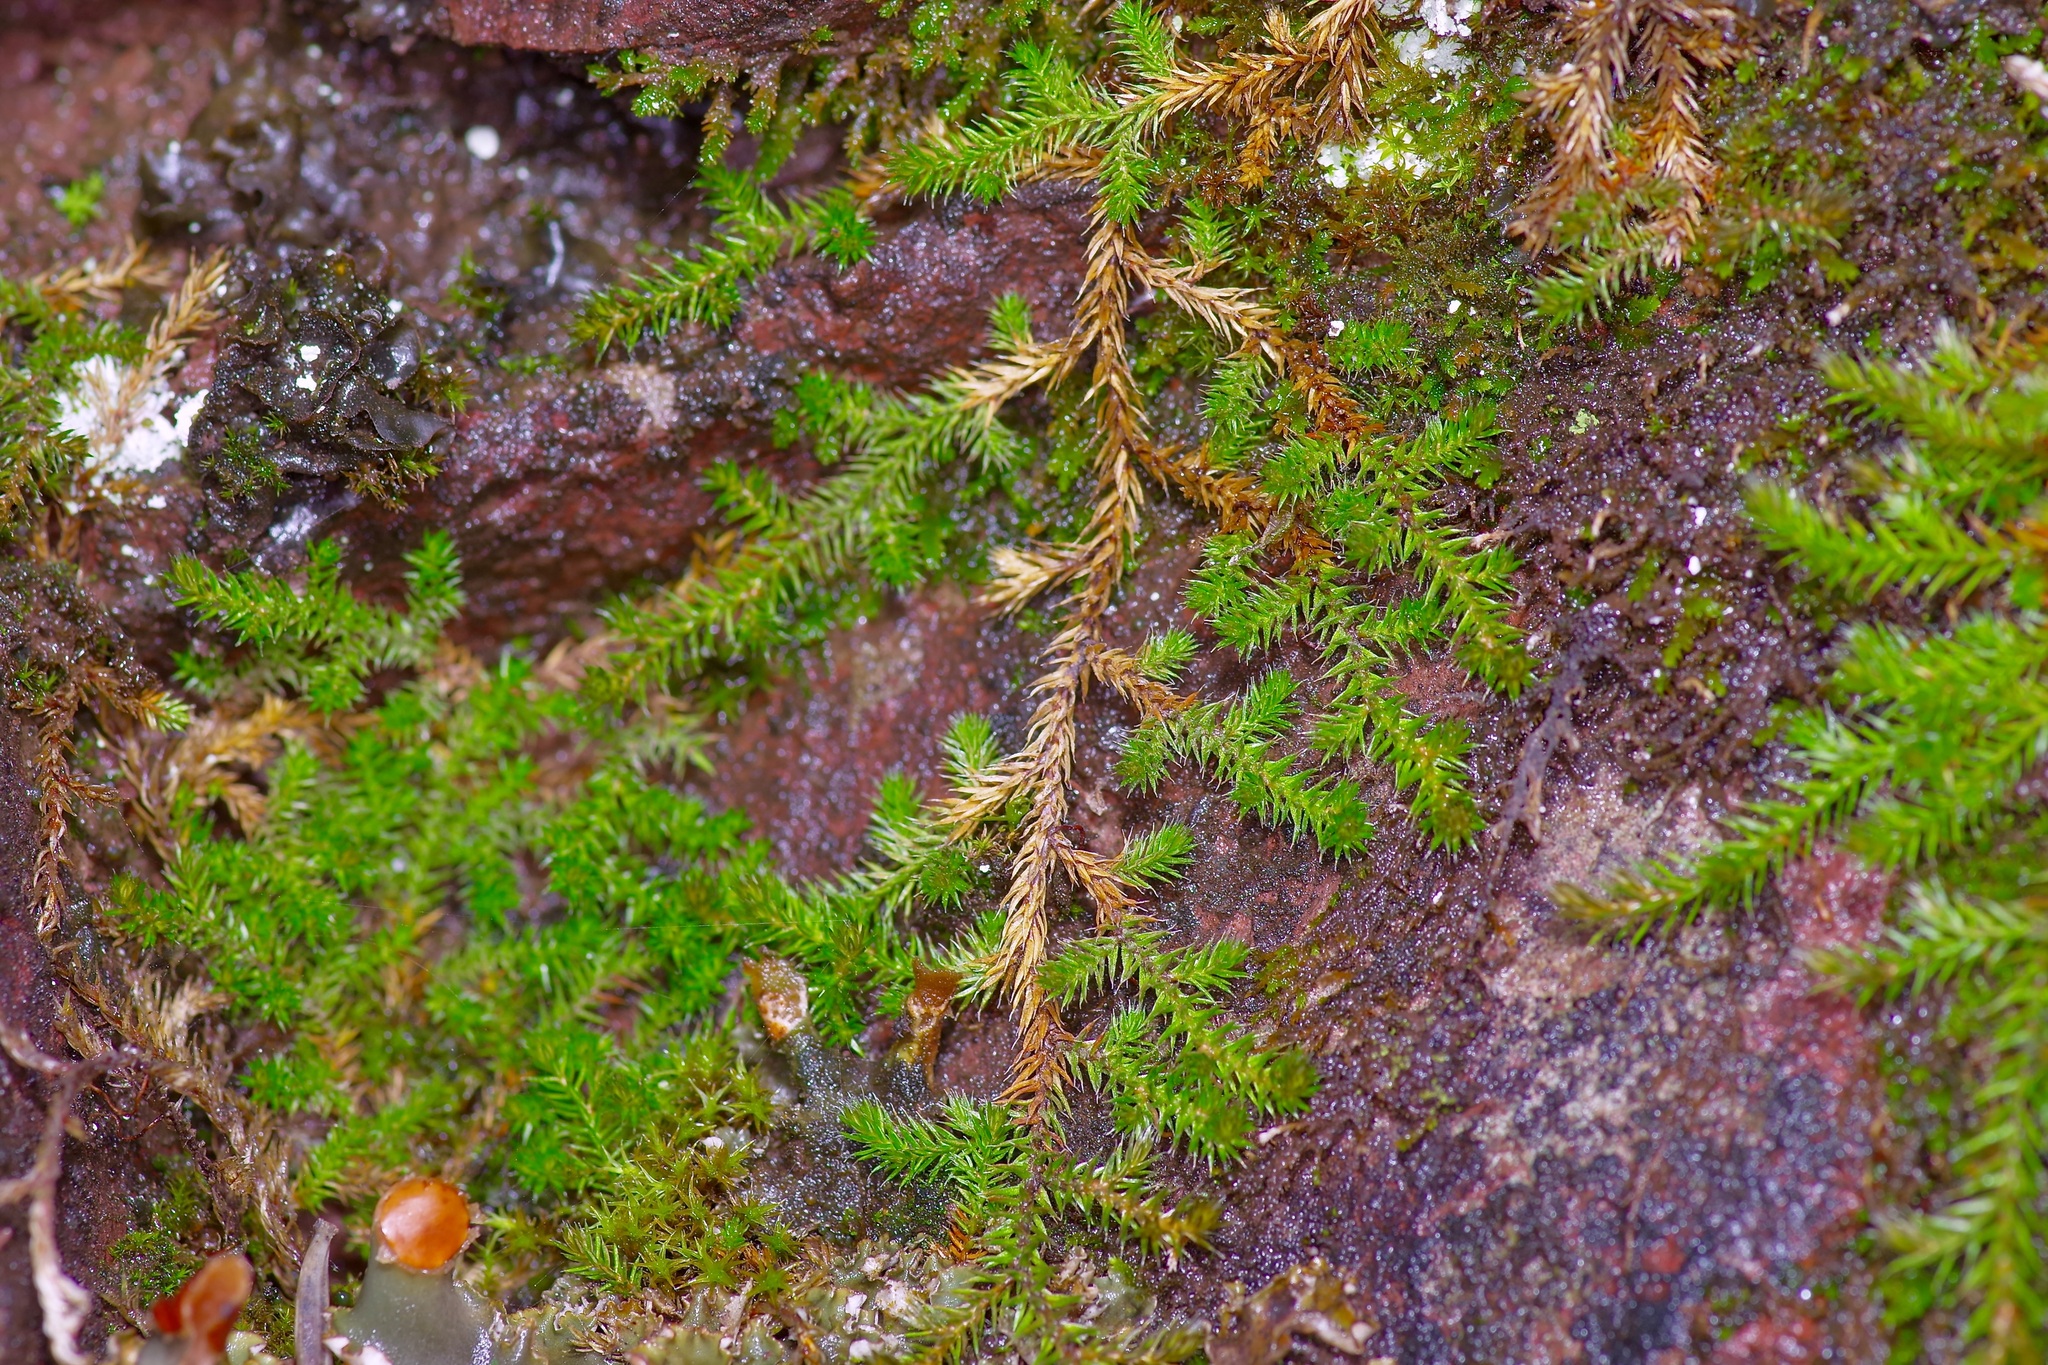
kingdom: Plantae
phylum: Tracheophyta
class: Lycopodiopsida
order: Selaginellales
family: Selaginellaceae
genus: Selaginella
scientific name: Selaginella underwoodii
